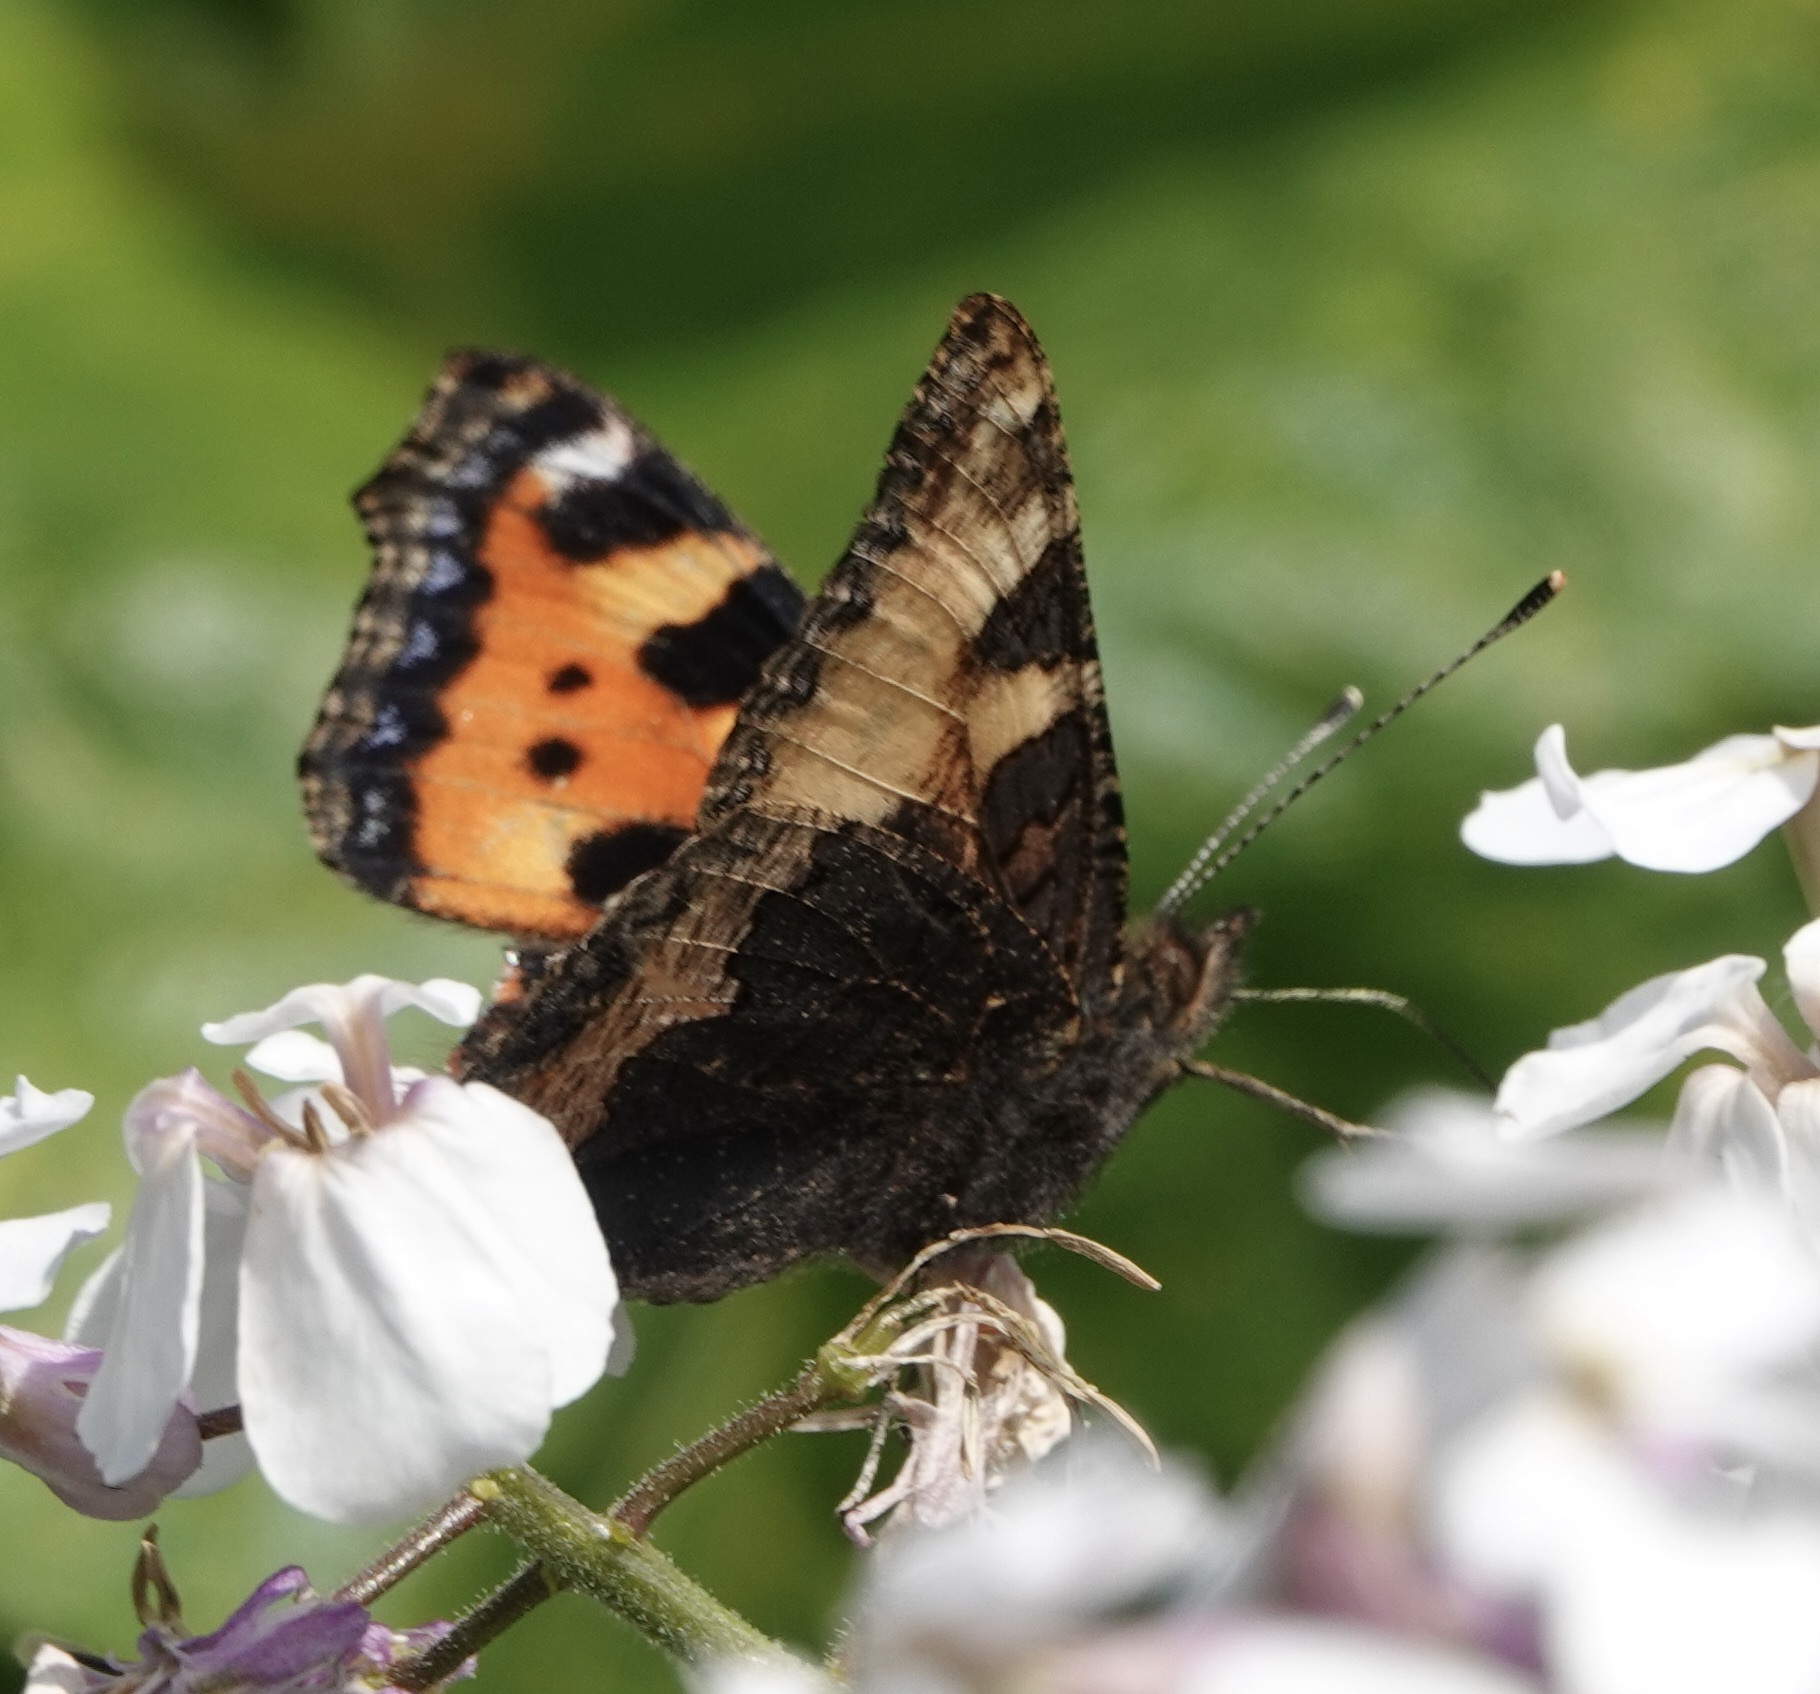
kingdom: Animalia
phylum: Arthropoda
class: Insecta
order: Lepidoptera
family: Nymphalidae
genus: Aglais
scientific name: Aglais urticae
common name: Small tortoiseshell
